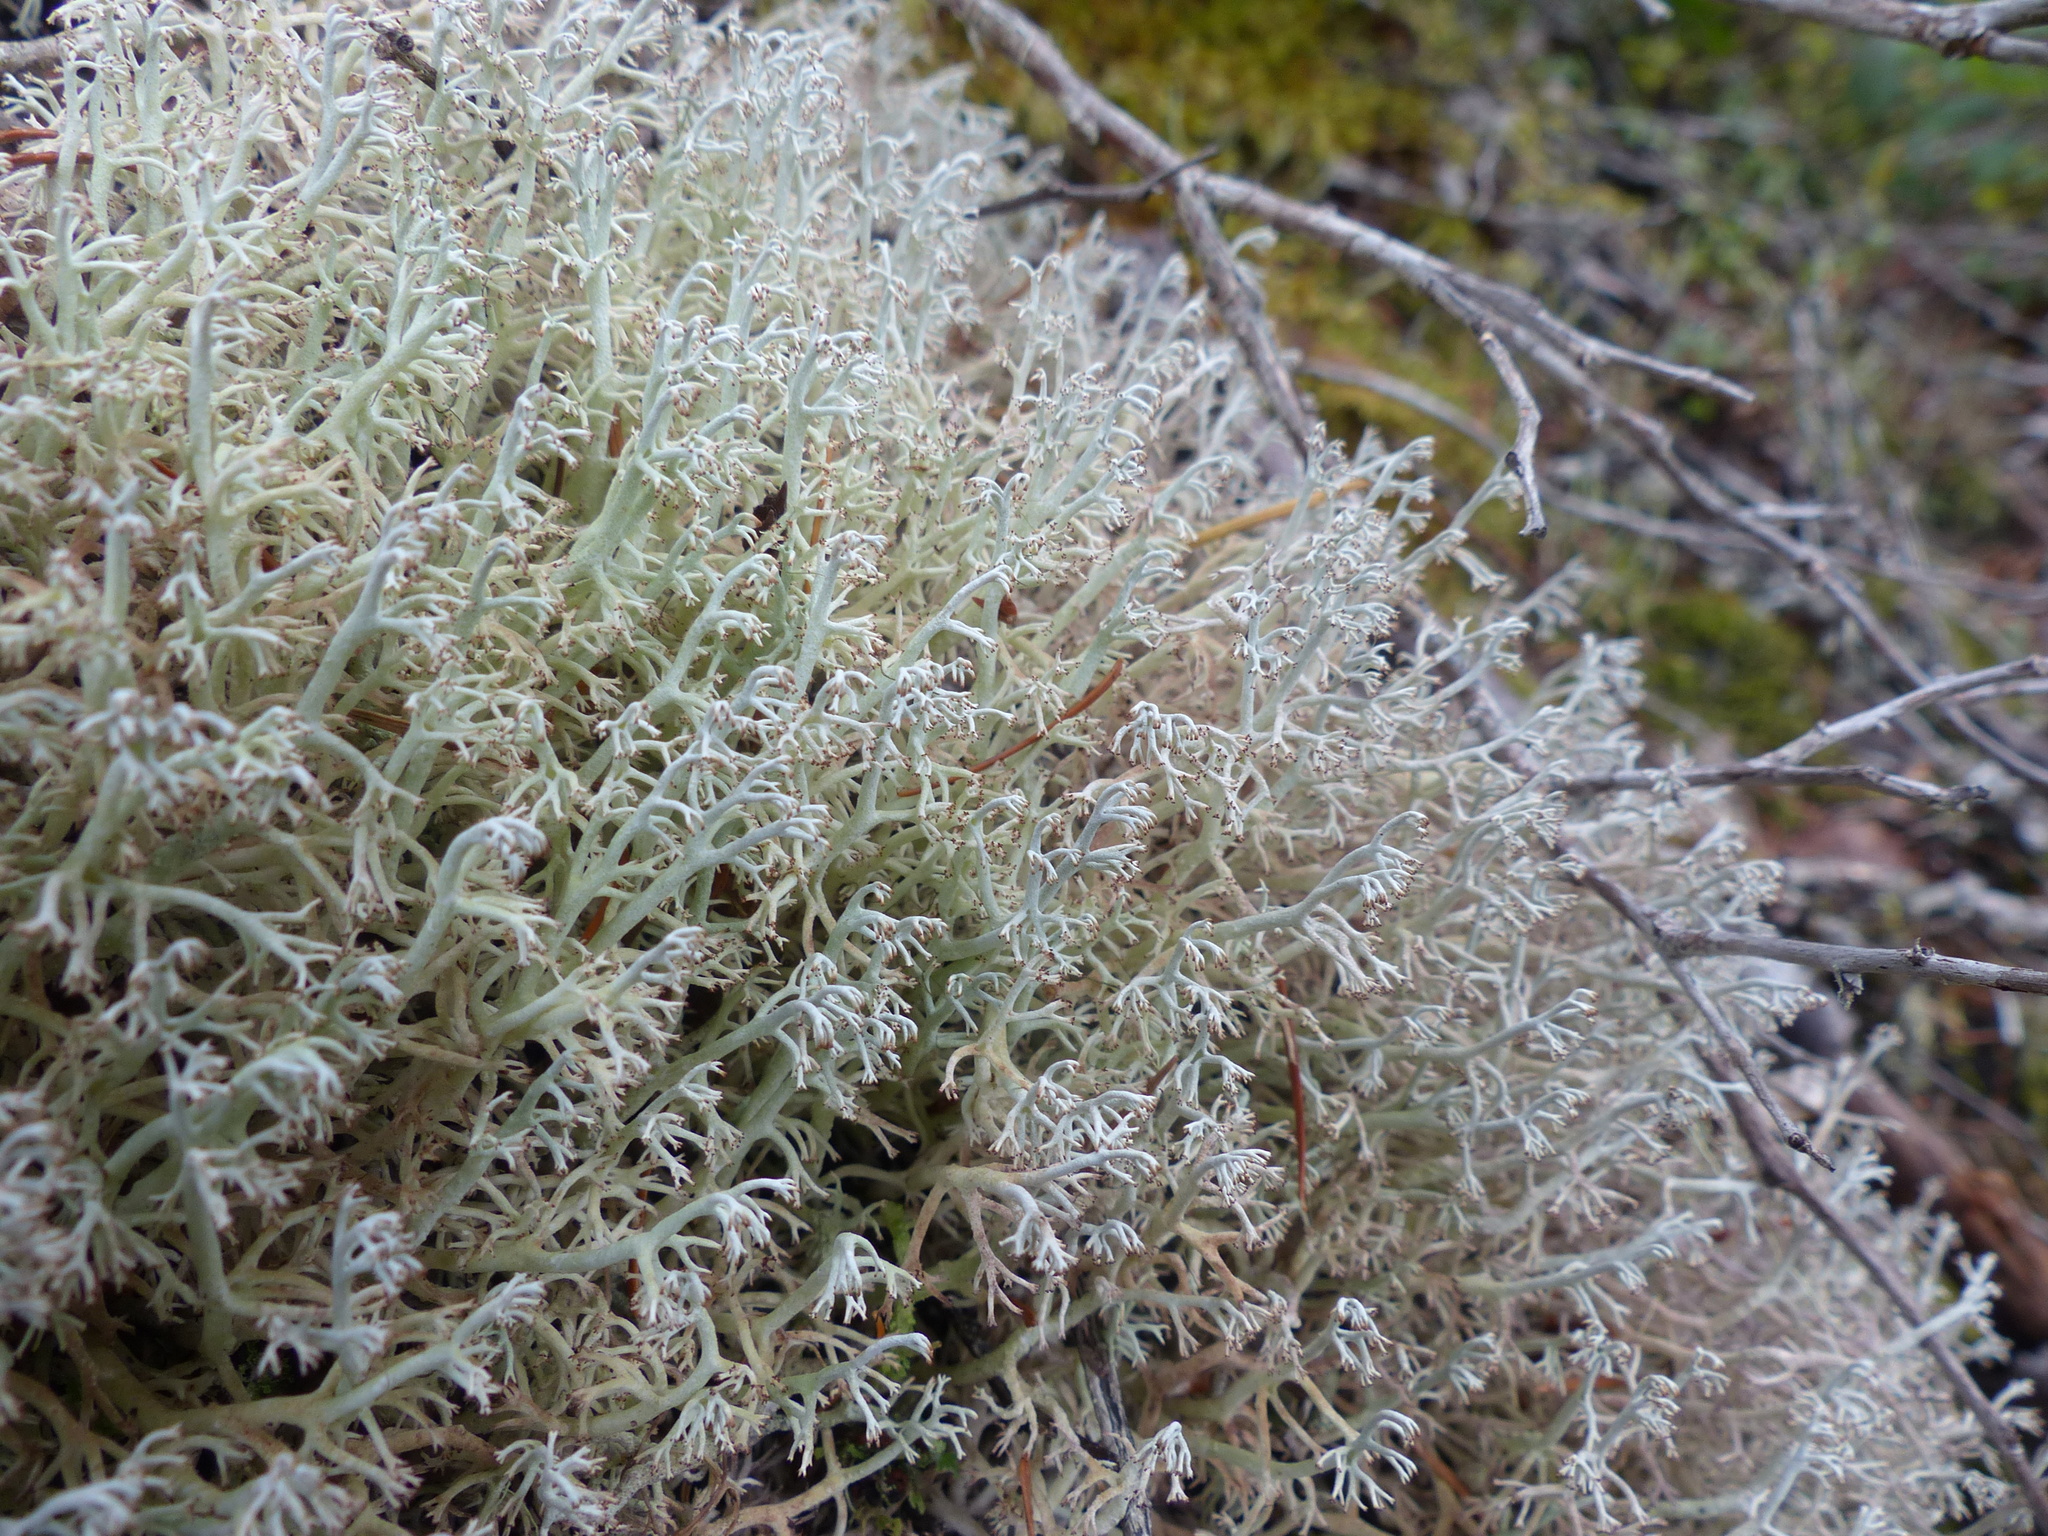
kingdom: Fungi
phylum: Ascomycota
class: Lecanoromycetes
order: Lecanorales
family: Cladoniaceae
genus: Cladonia
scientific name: Cladonia rangiferina
